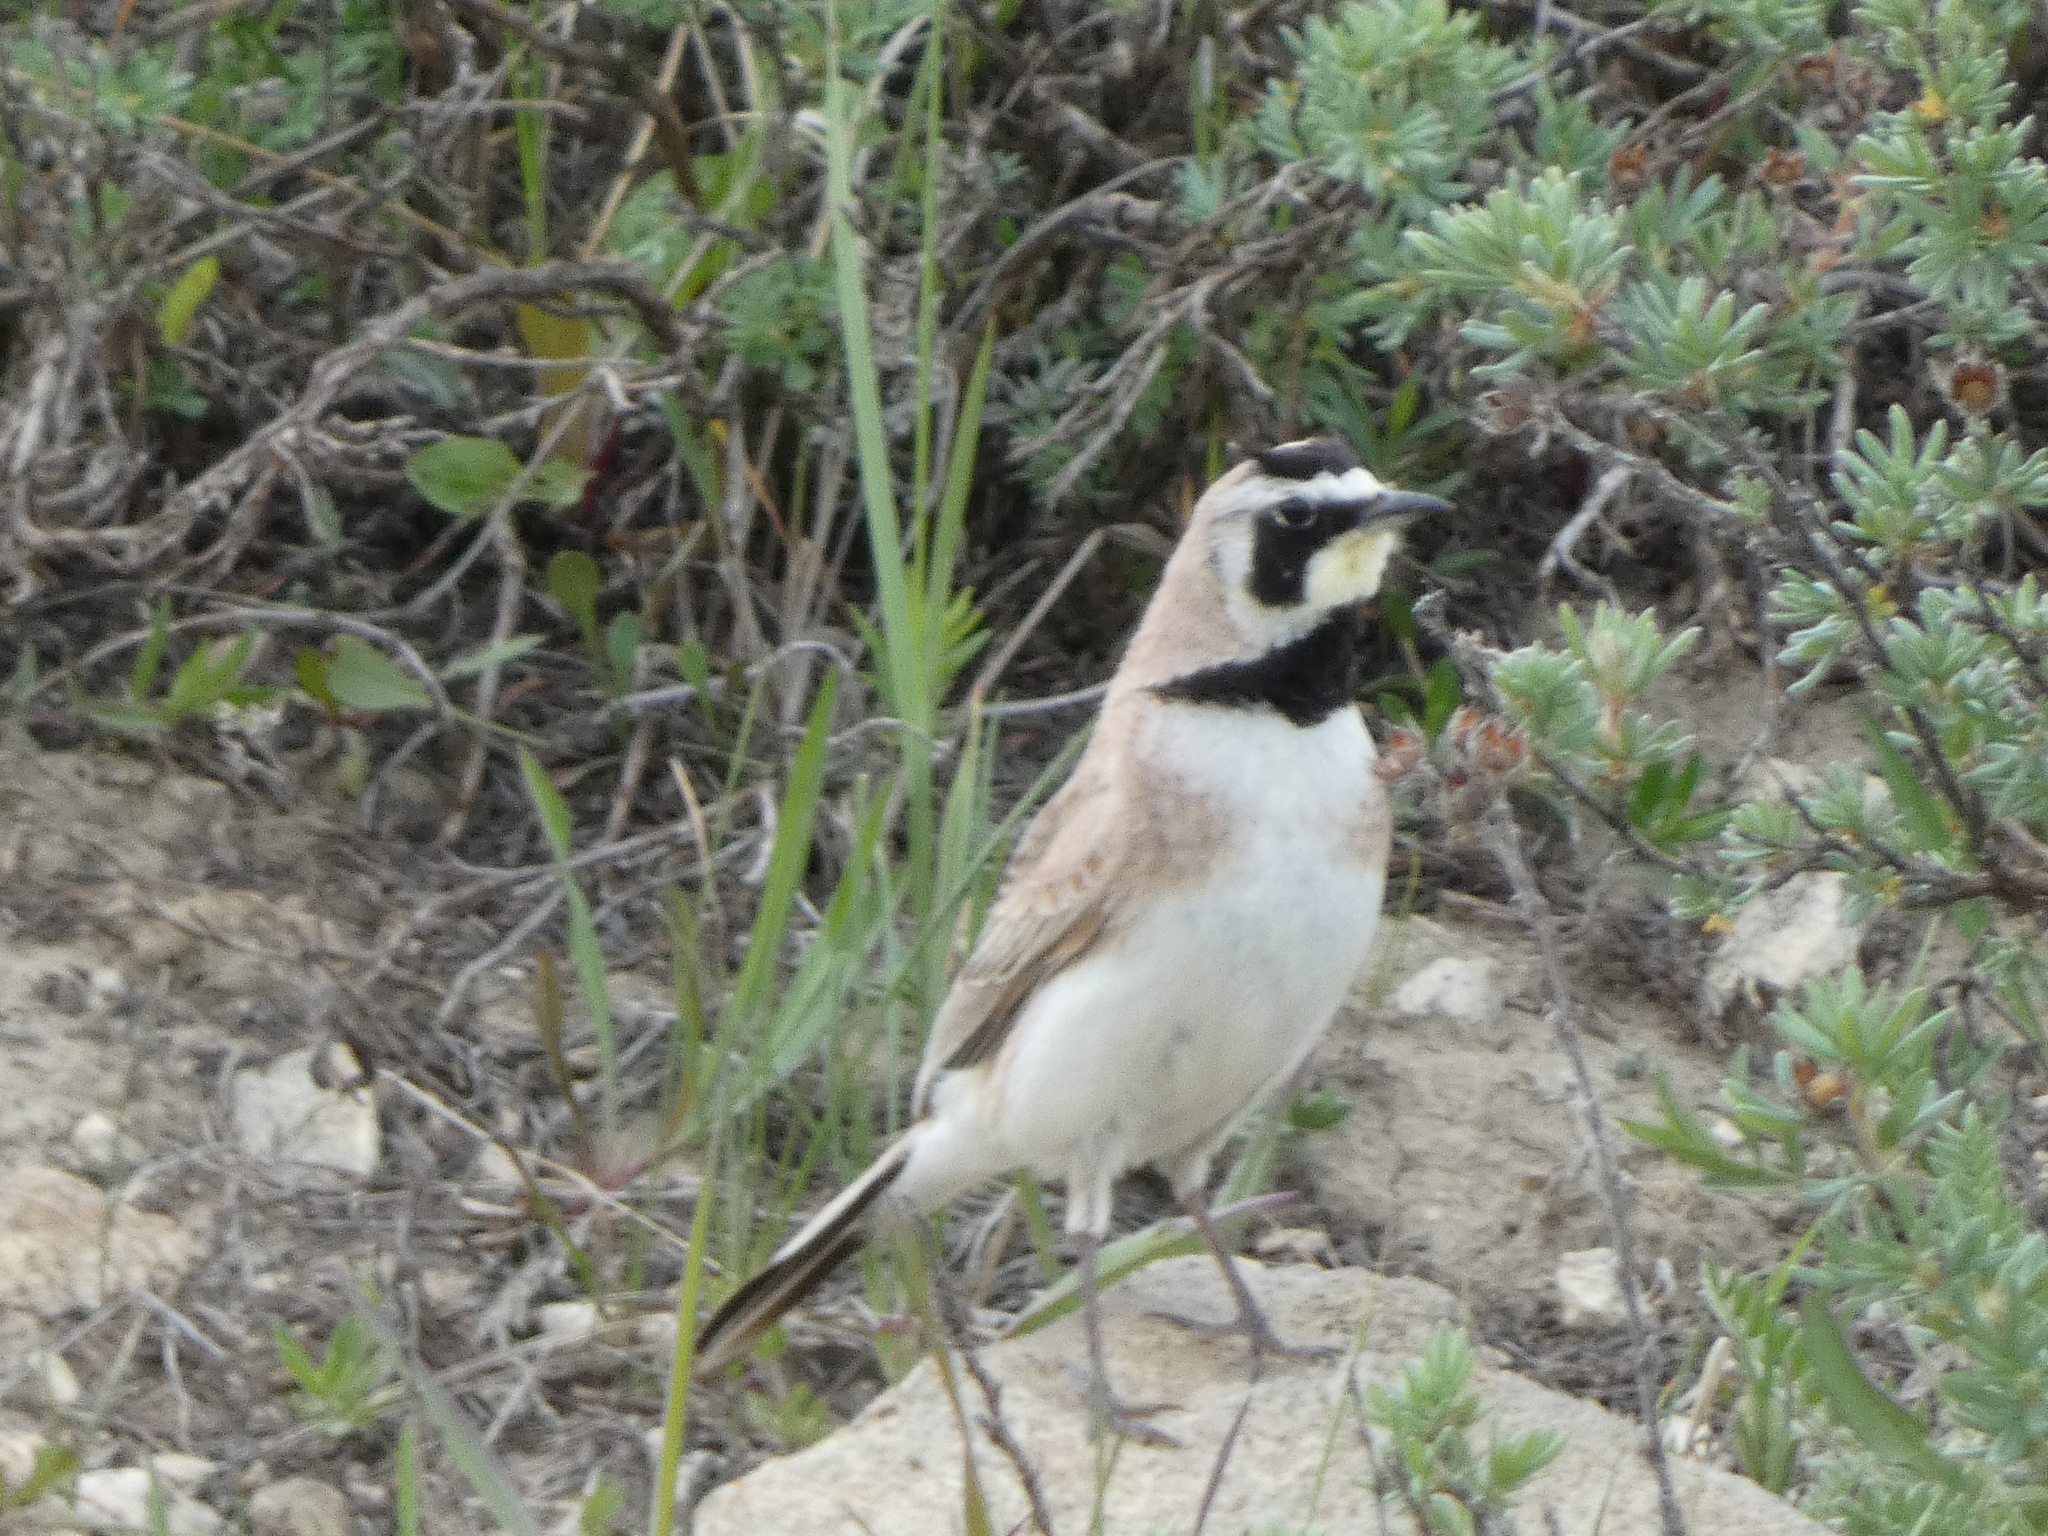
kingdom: Animalia
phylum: Chordata
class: Aves
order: Passeriformes
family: Alaudidae
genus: Eremophila
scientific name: Eremophila alpestris
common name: Horned lark
